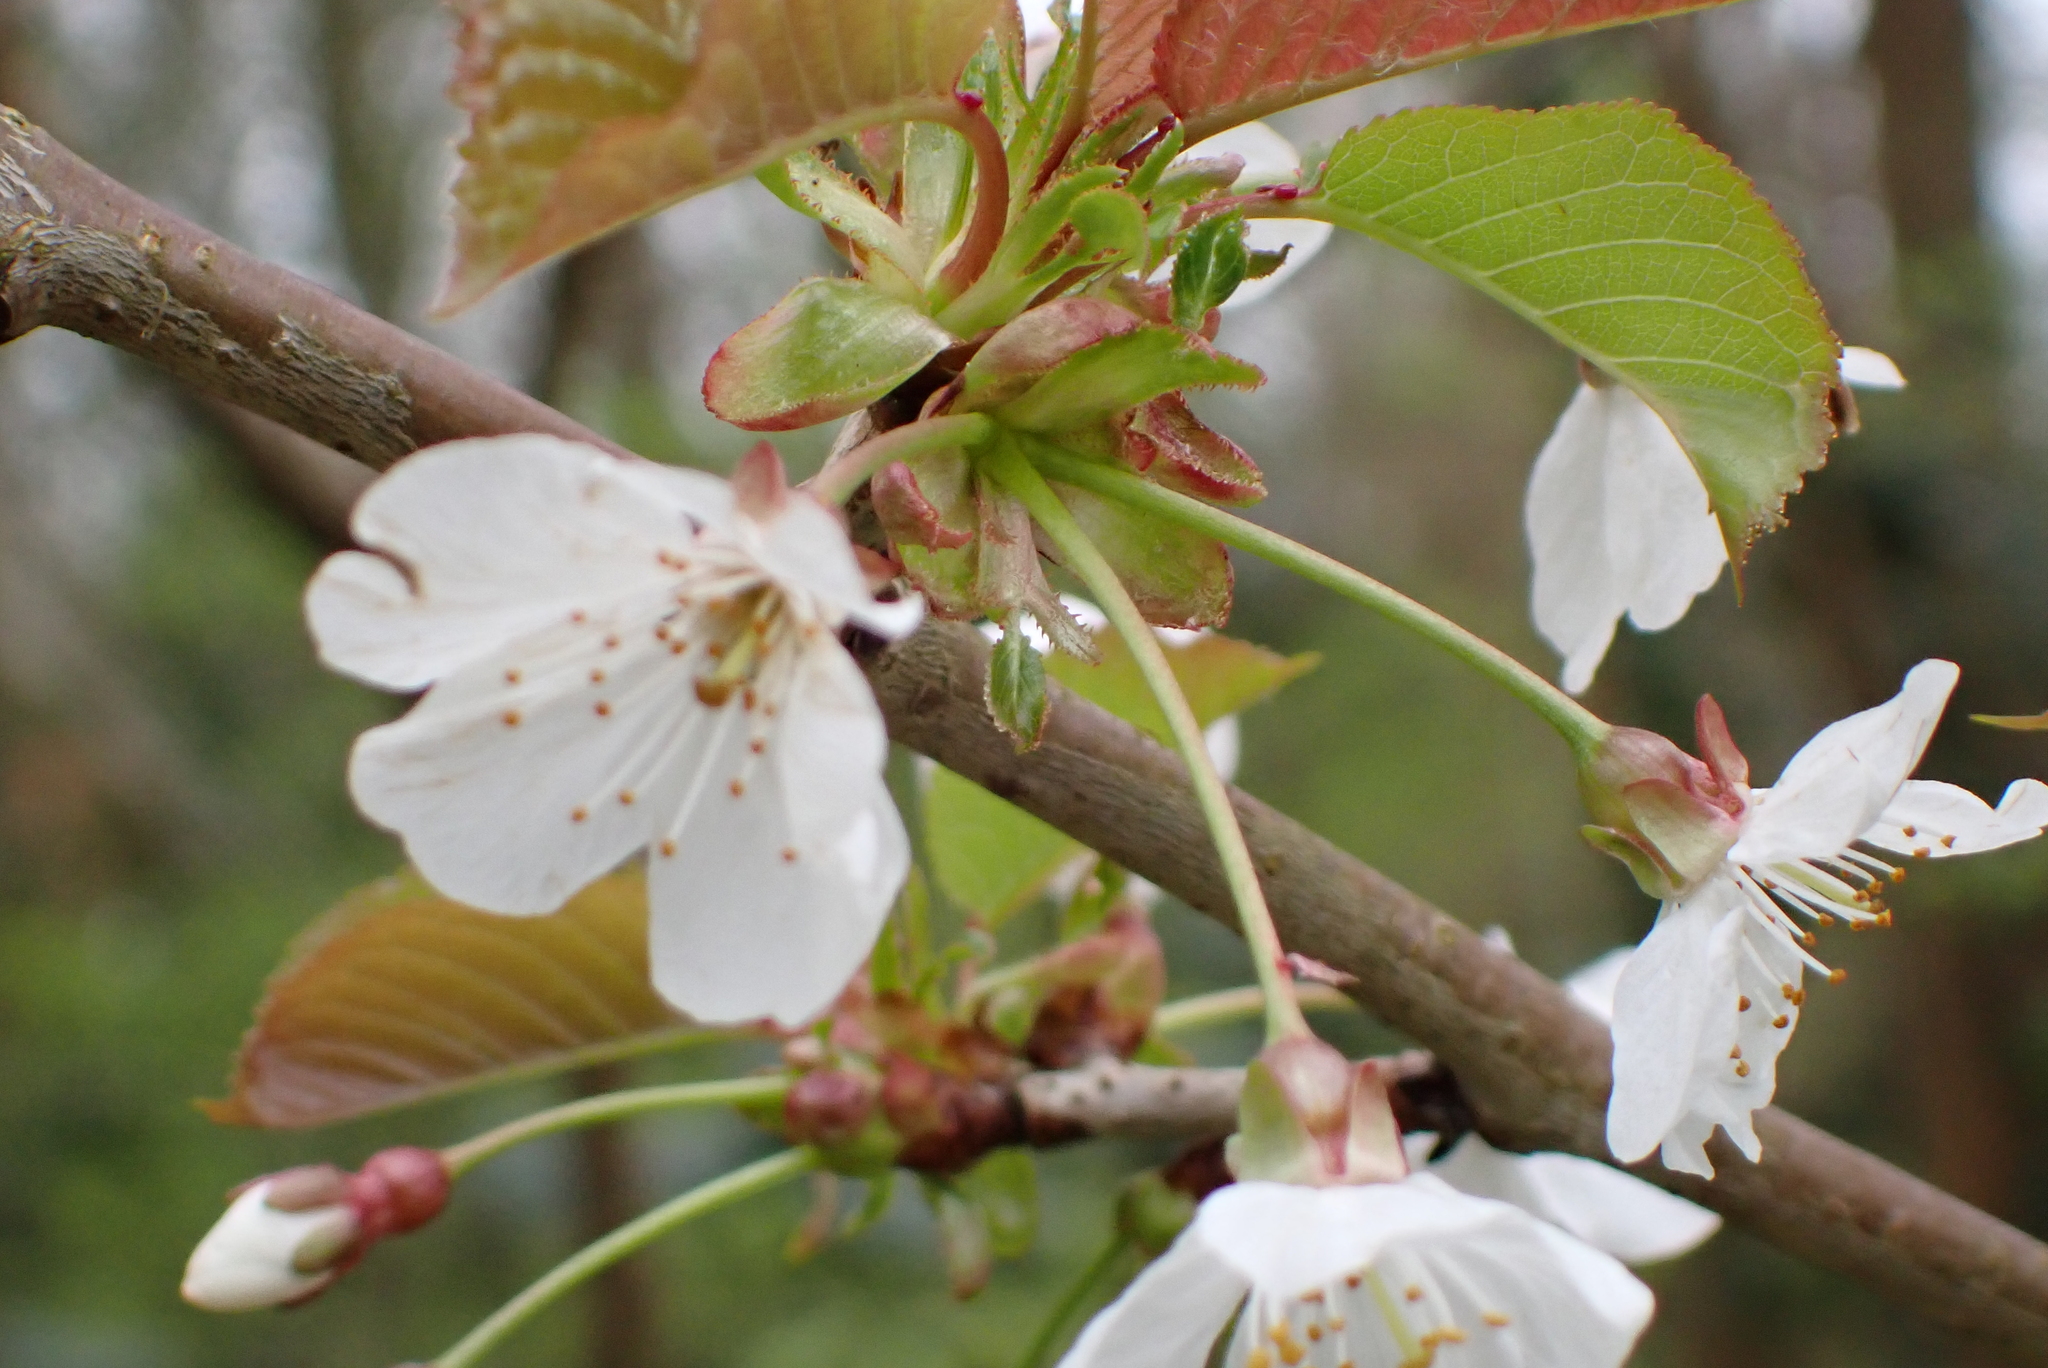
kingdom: Plantae
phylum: Tracheophyta
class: Magnoliopsida
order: Rosales
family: Rosaceae
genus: Prunus
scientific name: Prunus avium
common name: Sweet cherry
